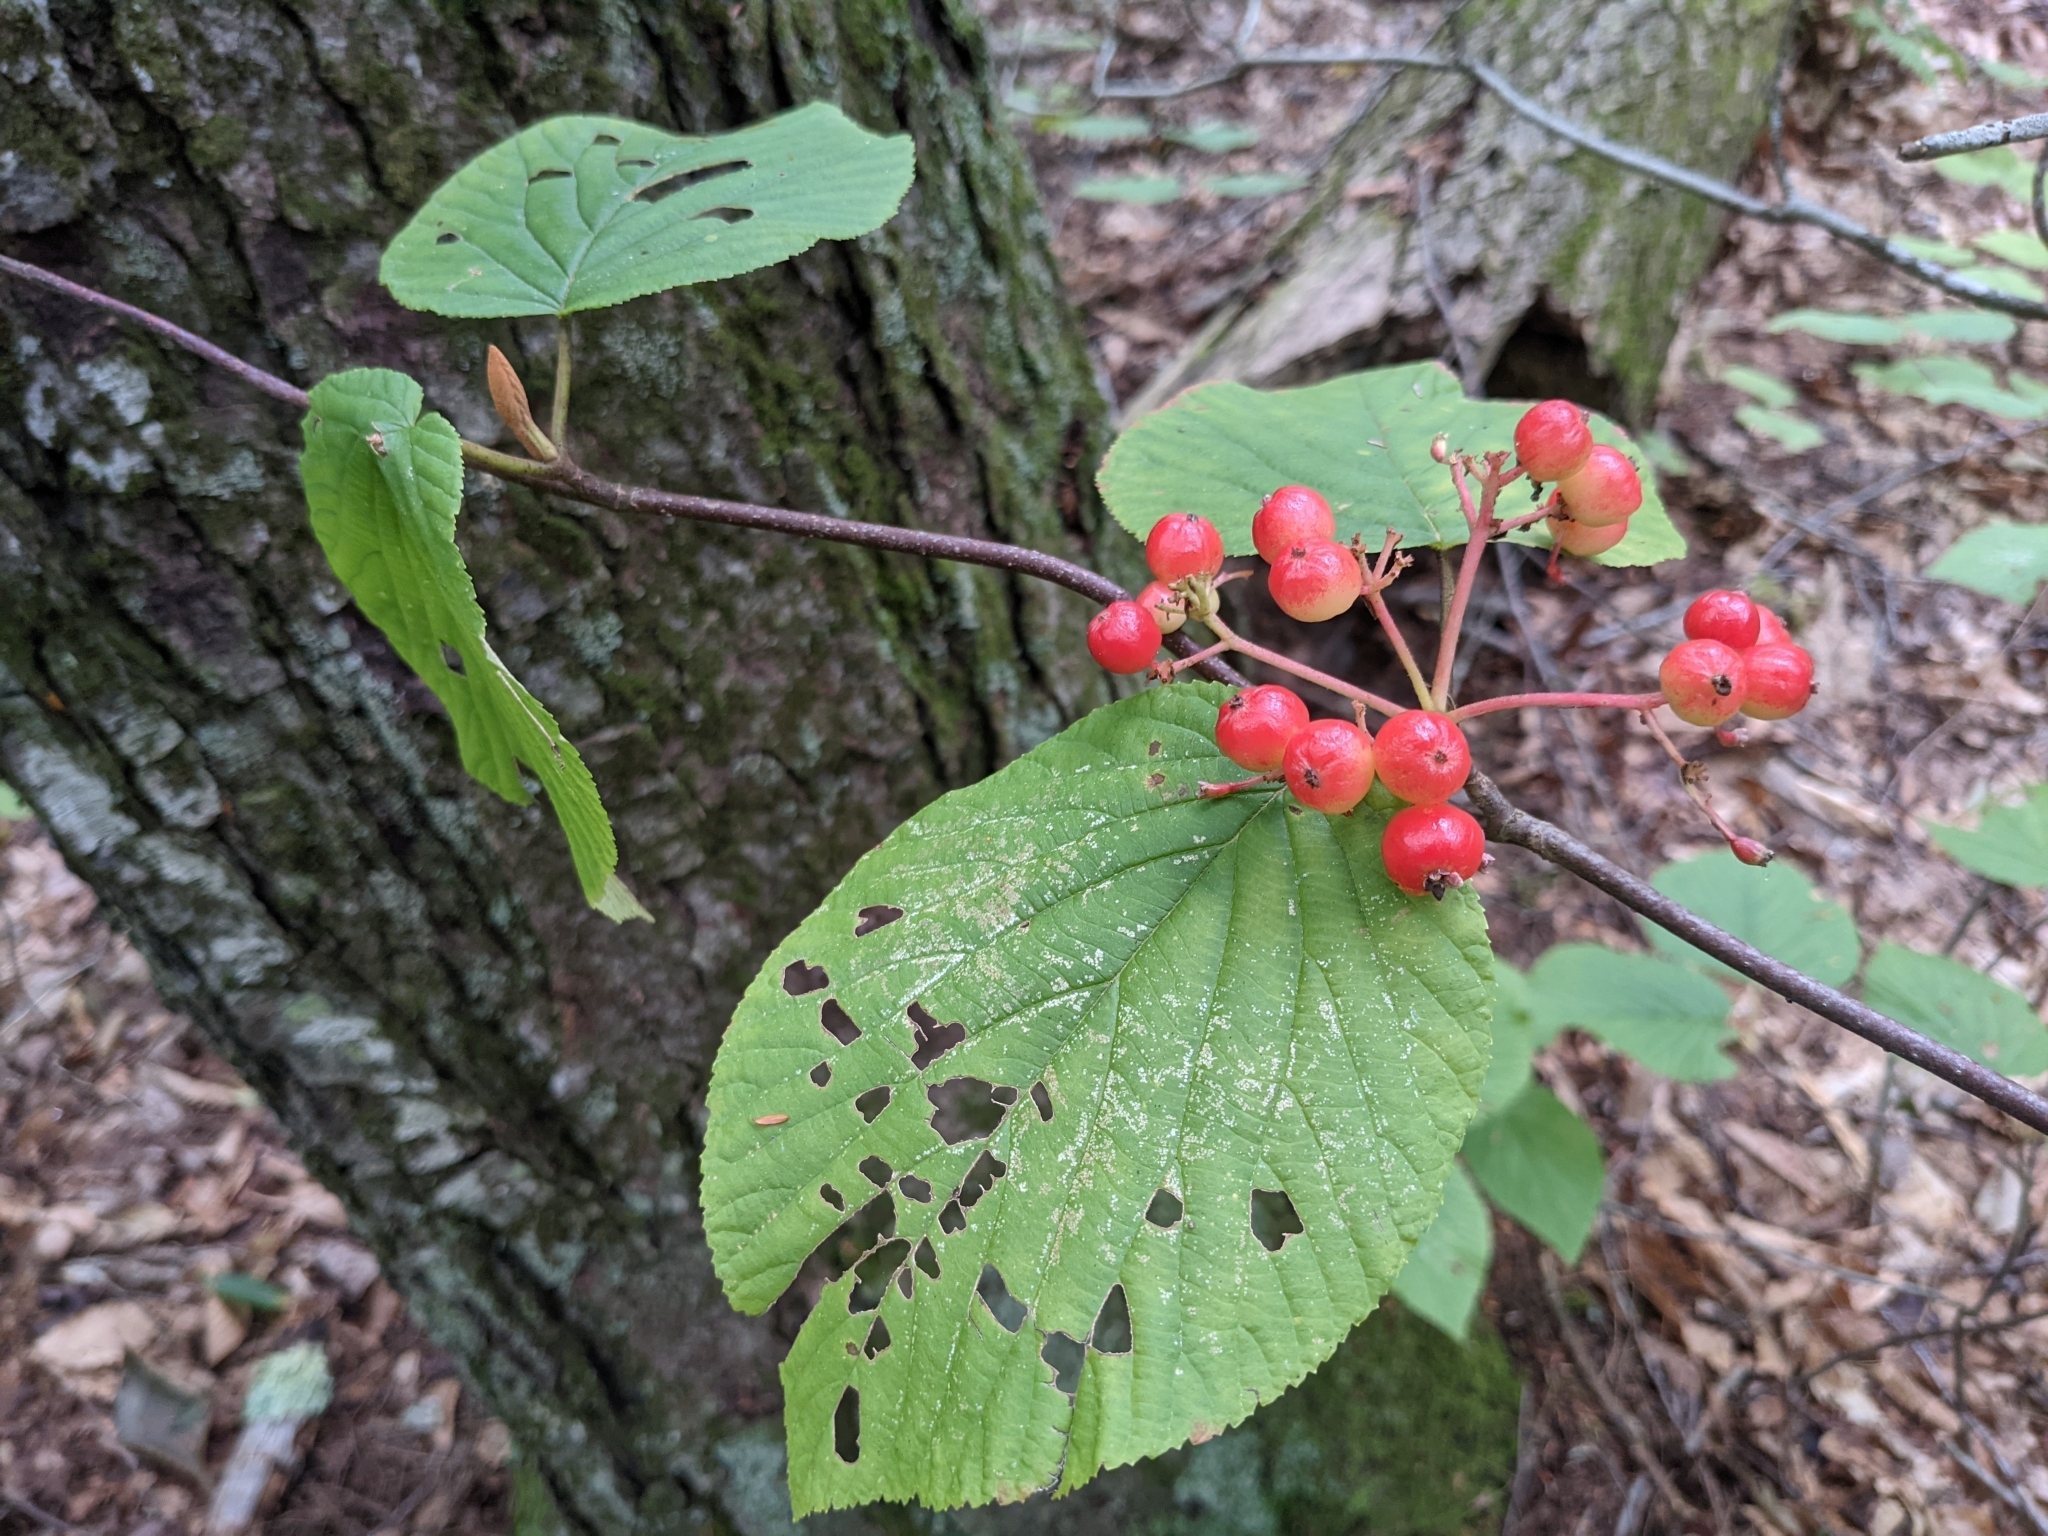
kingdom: Plantae
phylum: Tracheophyta
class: Magnoliopsida
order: Dipsacales
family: Viburnaceae
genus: Viburnum
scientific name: Viburnum lantanoides
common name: Hobblebush
